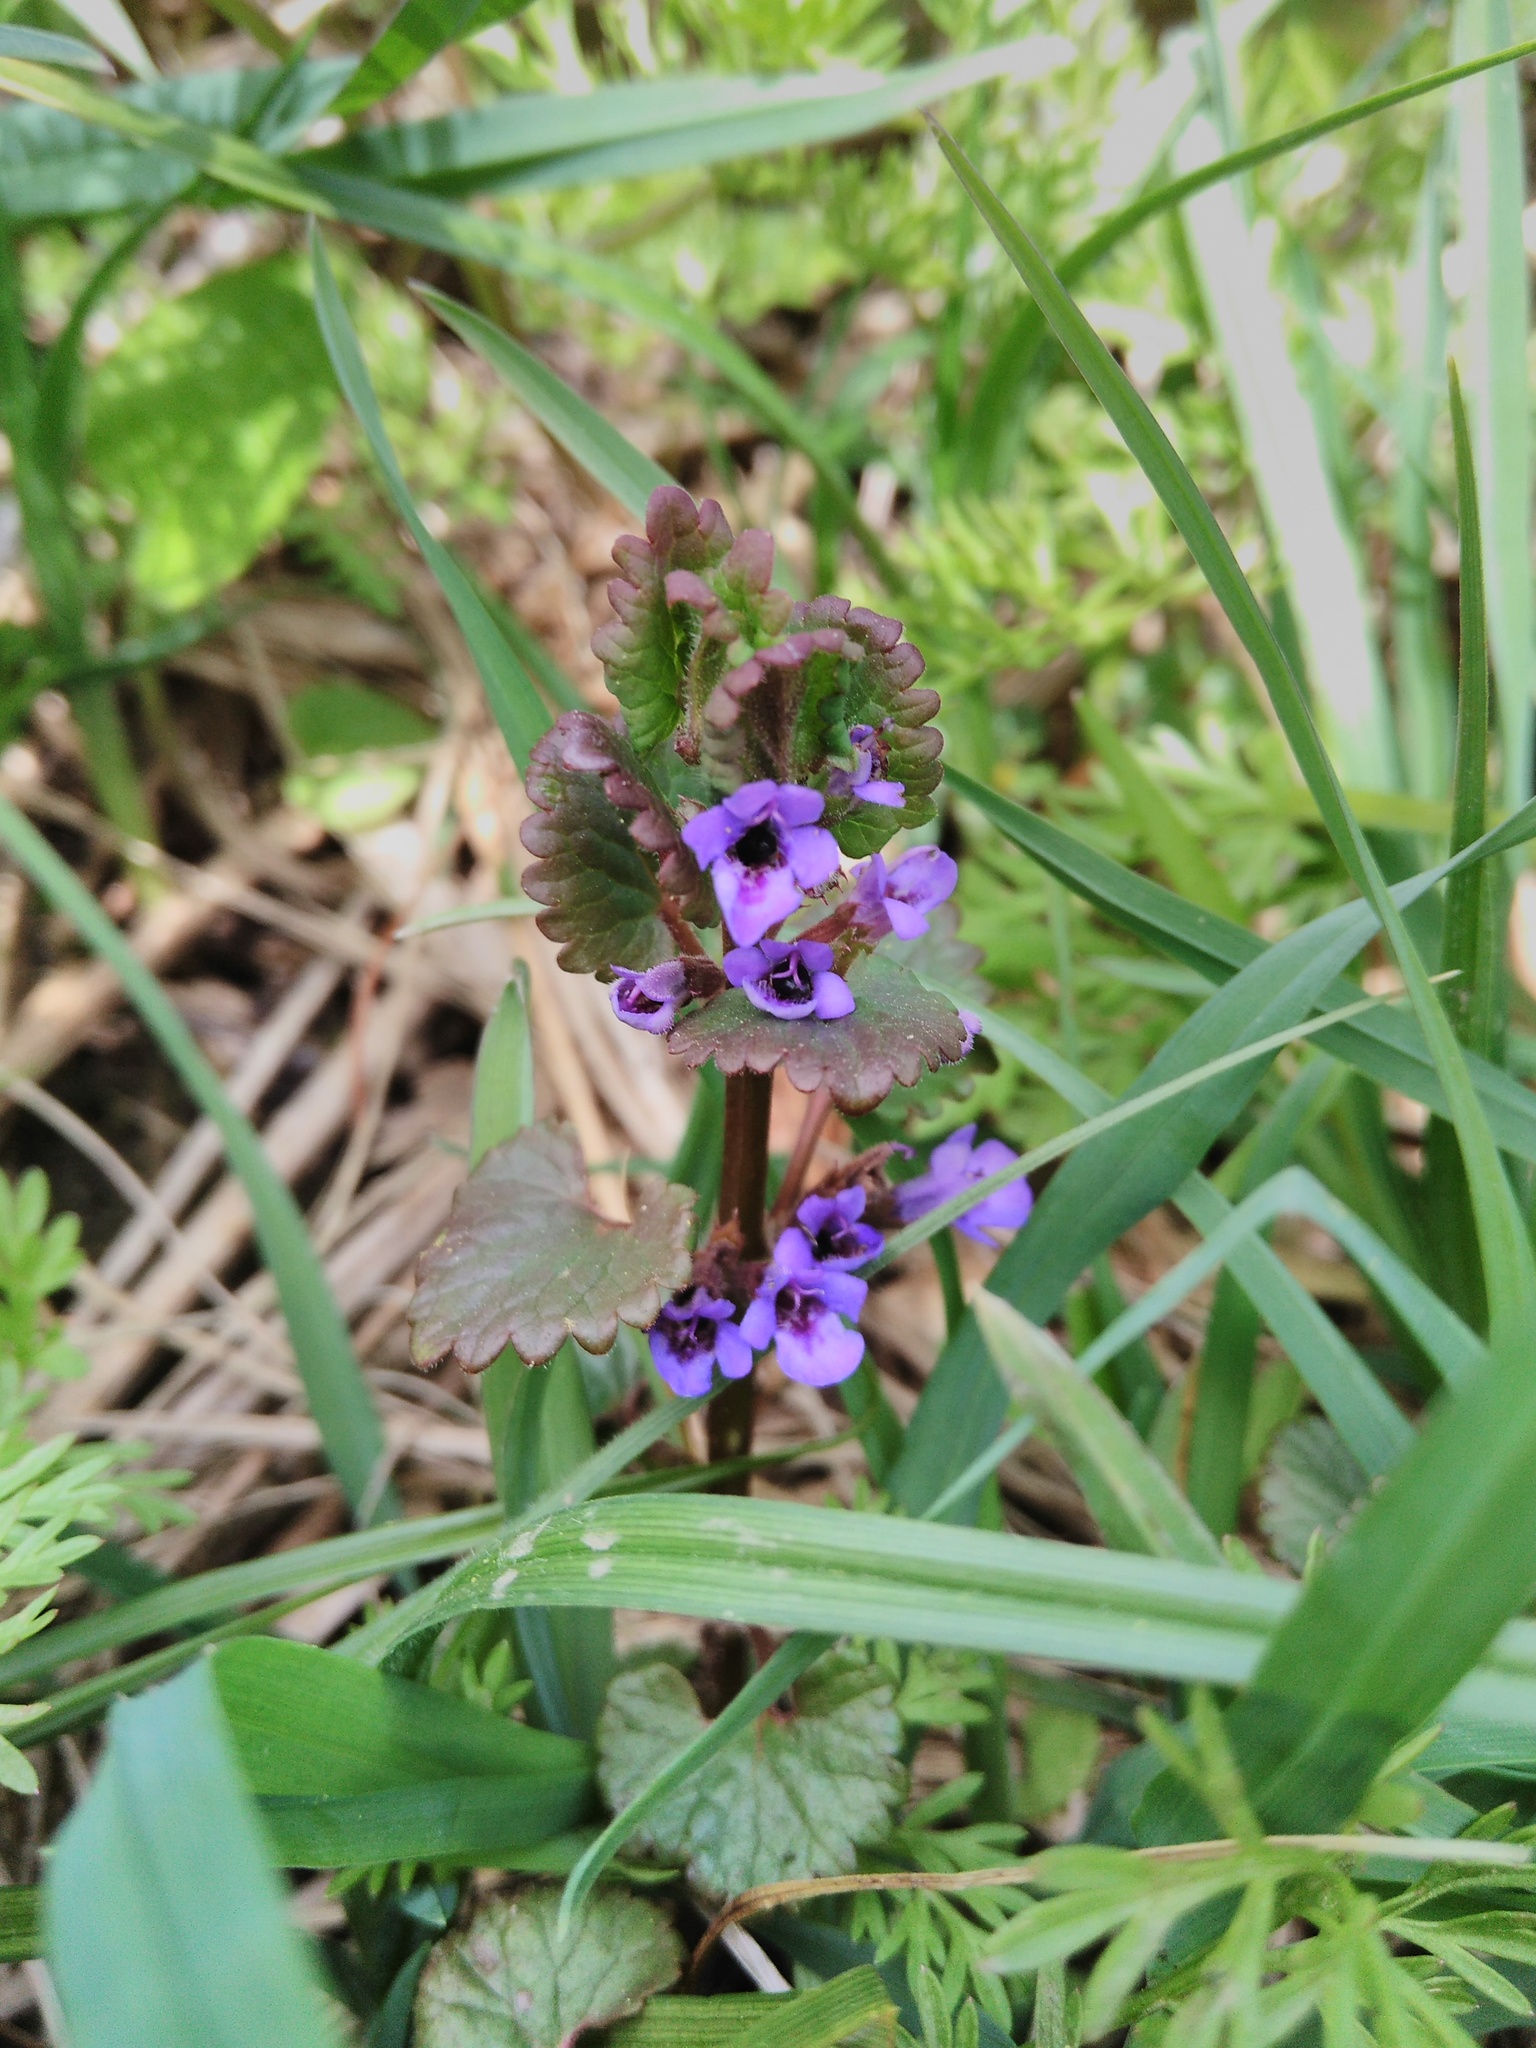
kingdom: Plantae
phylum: Tracheophyta
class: Magnoliopsida
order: Lamiales
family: Lamiaceae
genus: Glechoma
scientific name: Glechoma hederacea
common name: Ground ivy
